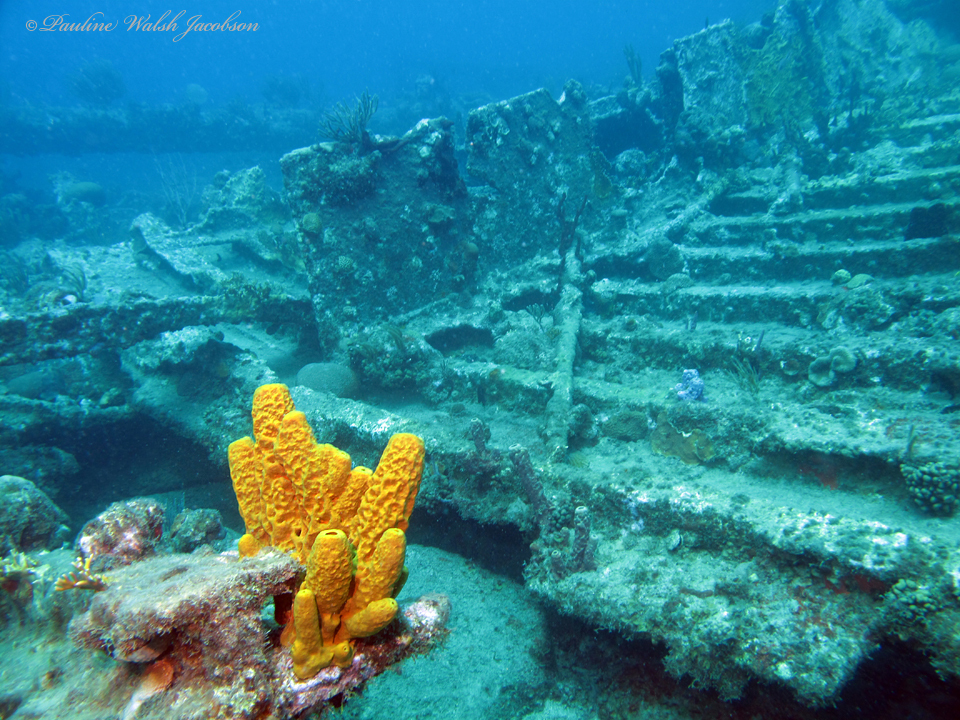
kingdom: Animalia
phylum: Porifera
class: Demospongiae
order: Verongiida
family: Aplysinidae
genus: Aplysina
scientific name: Aplysina fistularis
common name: Candle sponge
